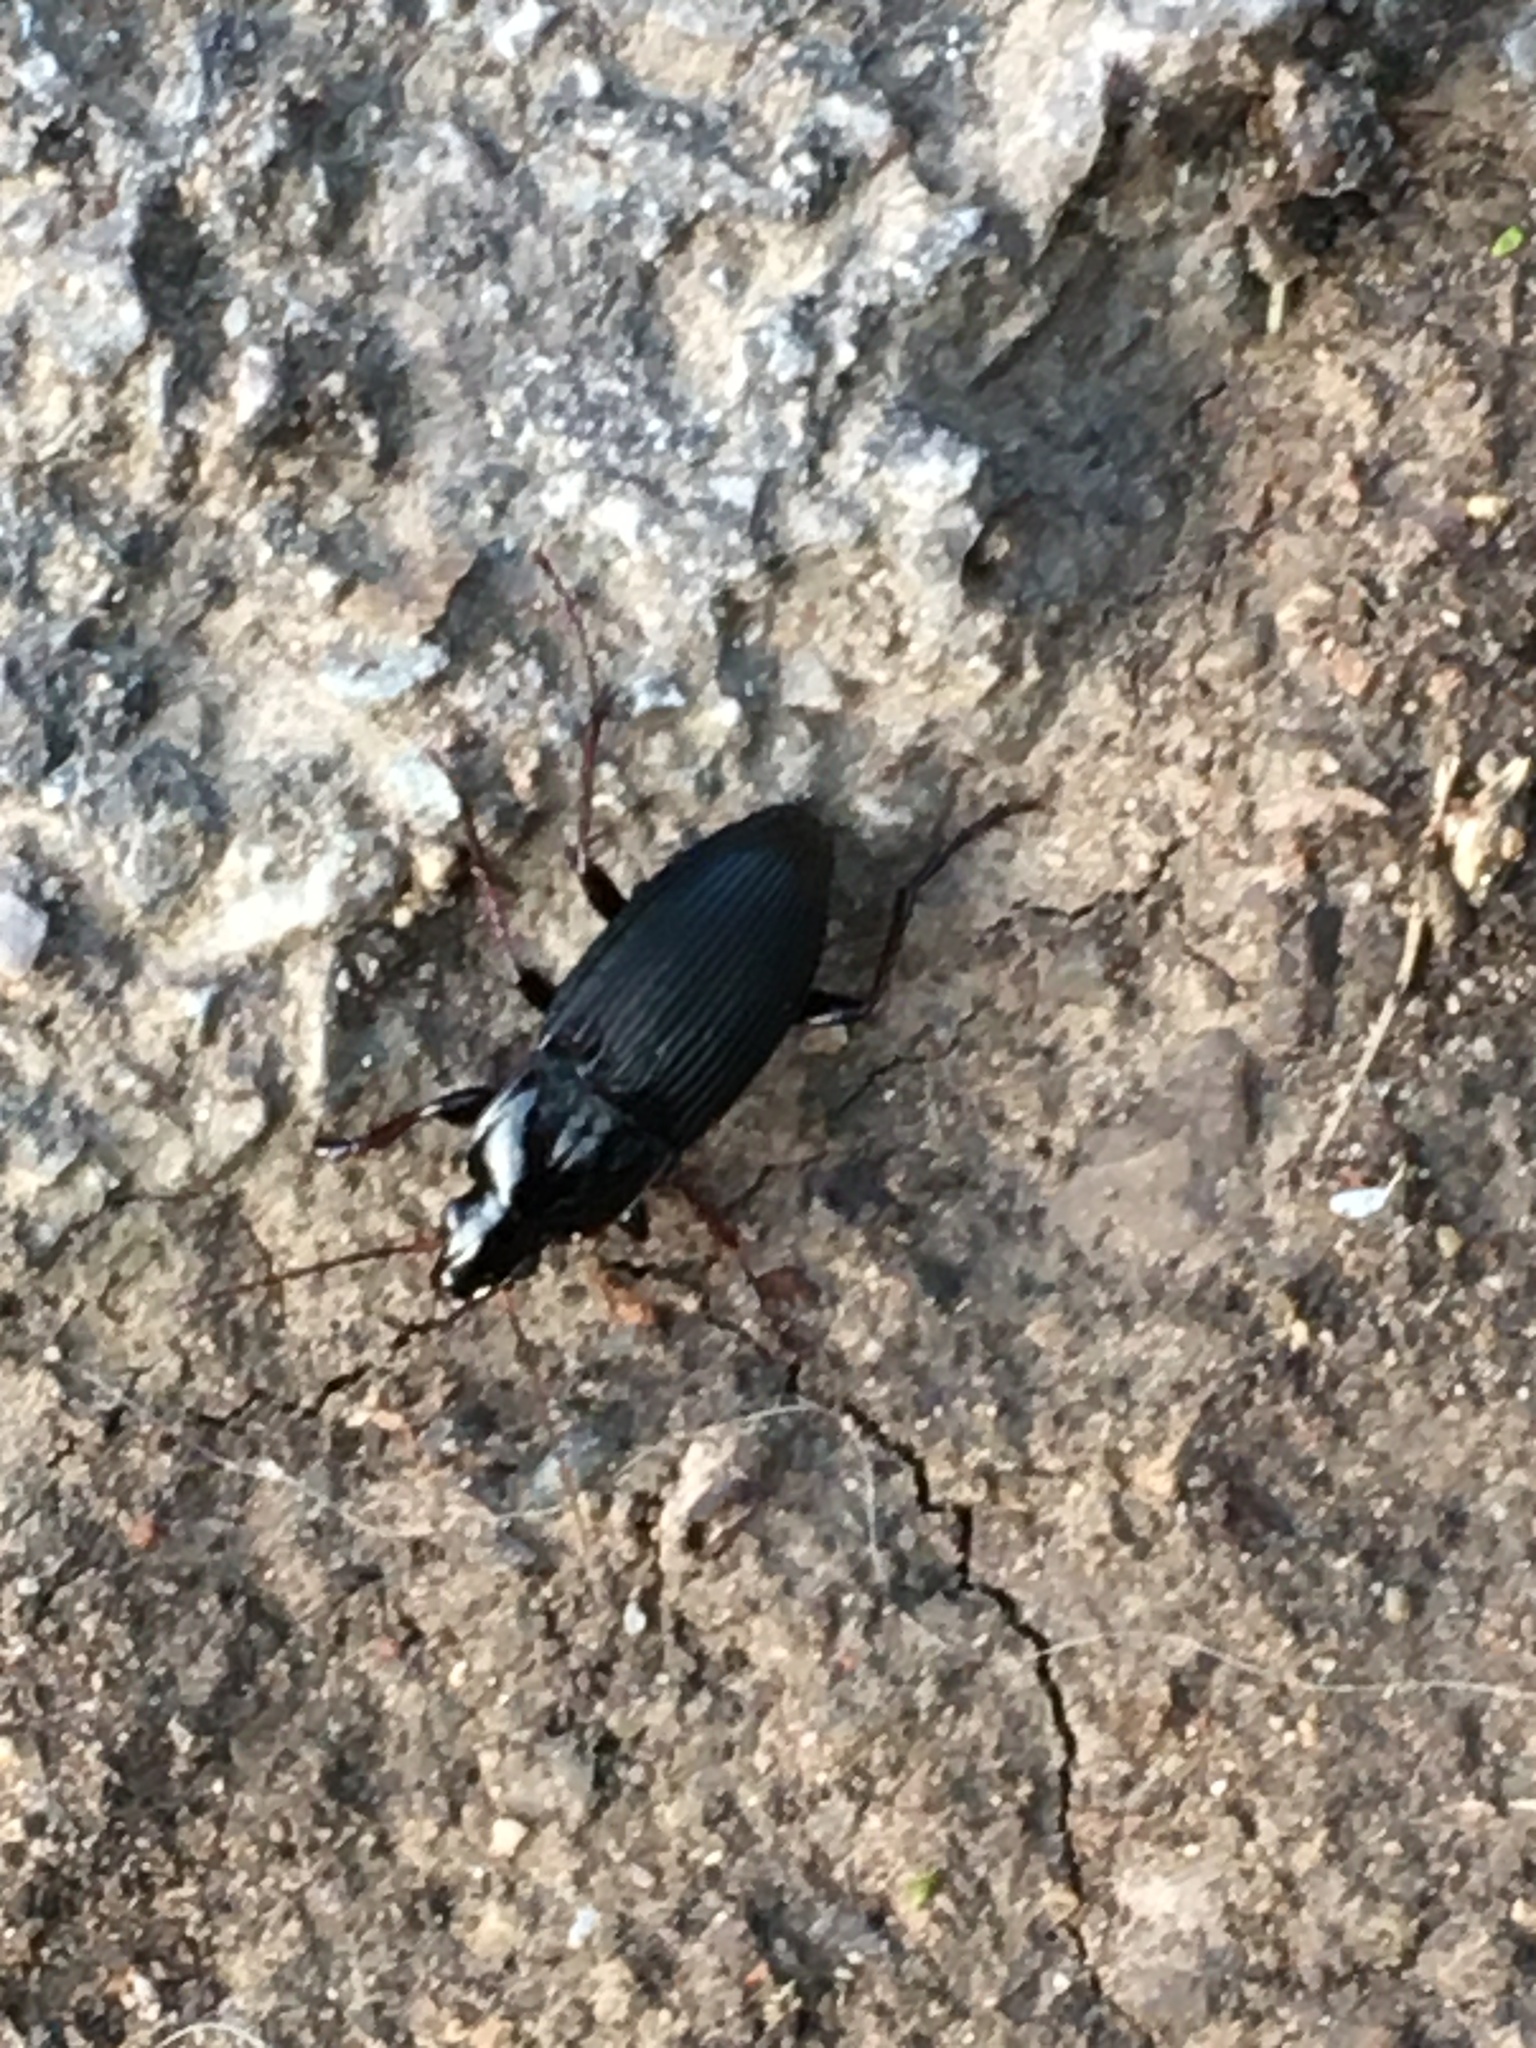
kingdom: Animalia
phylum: Arthropoda
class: Insecta
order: Coleoptera
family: Carabidae
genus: Calathus
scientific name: Calathus fuscipes
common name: Dark-footed harp ground beetle
